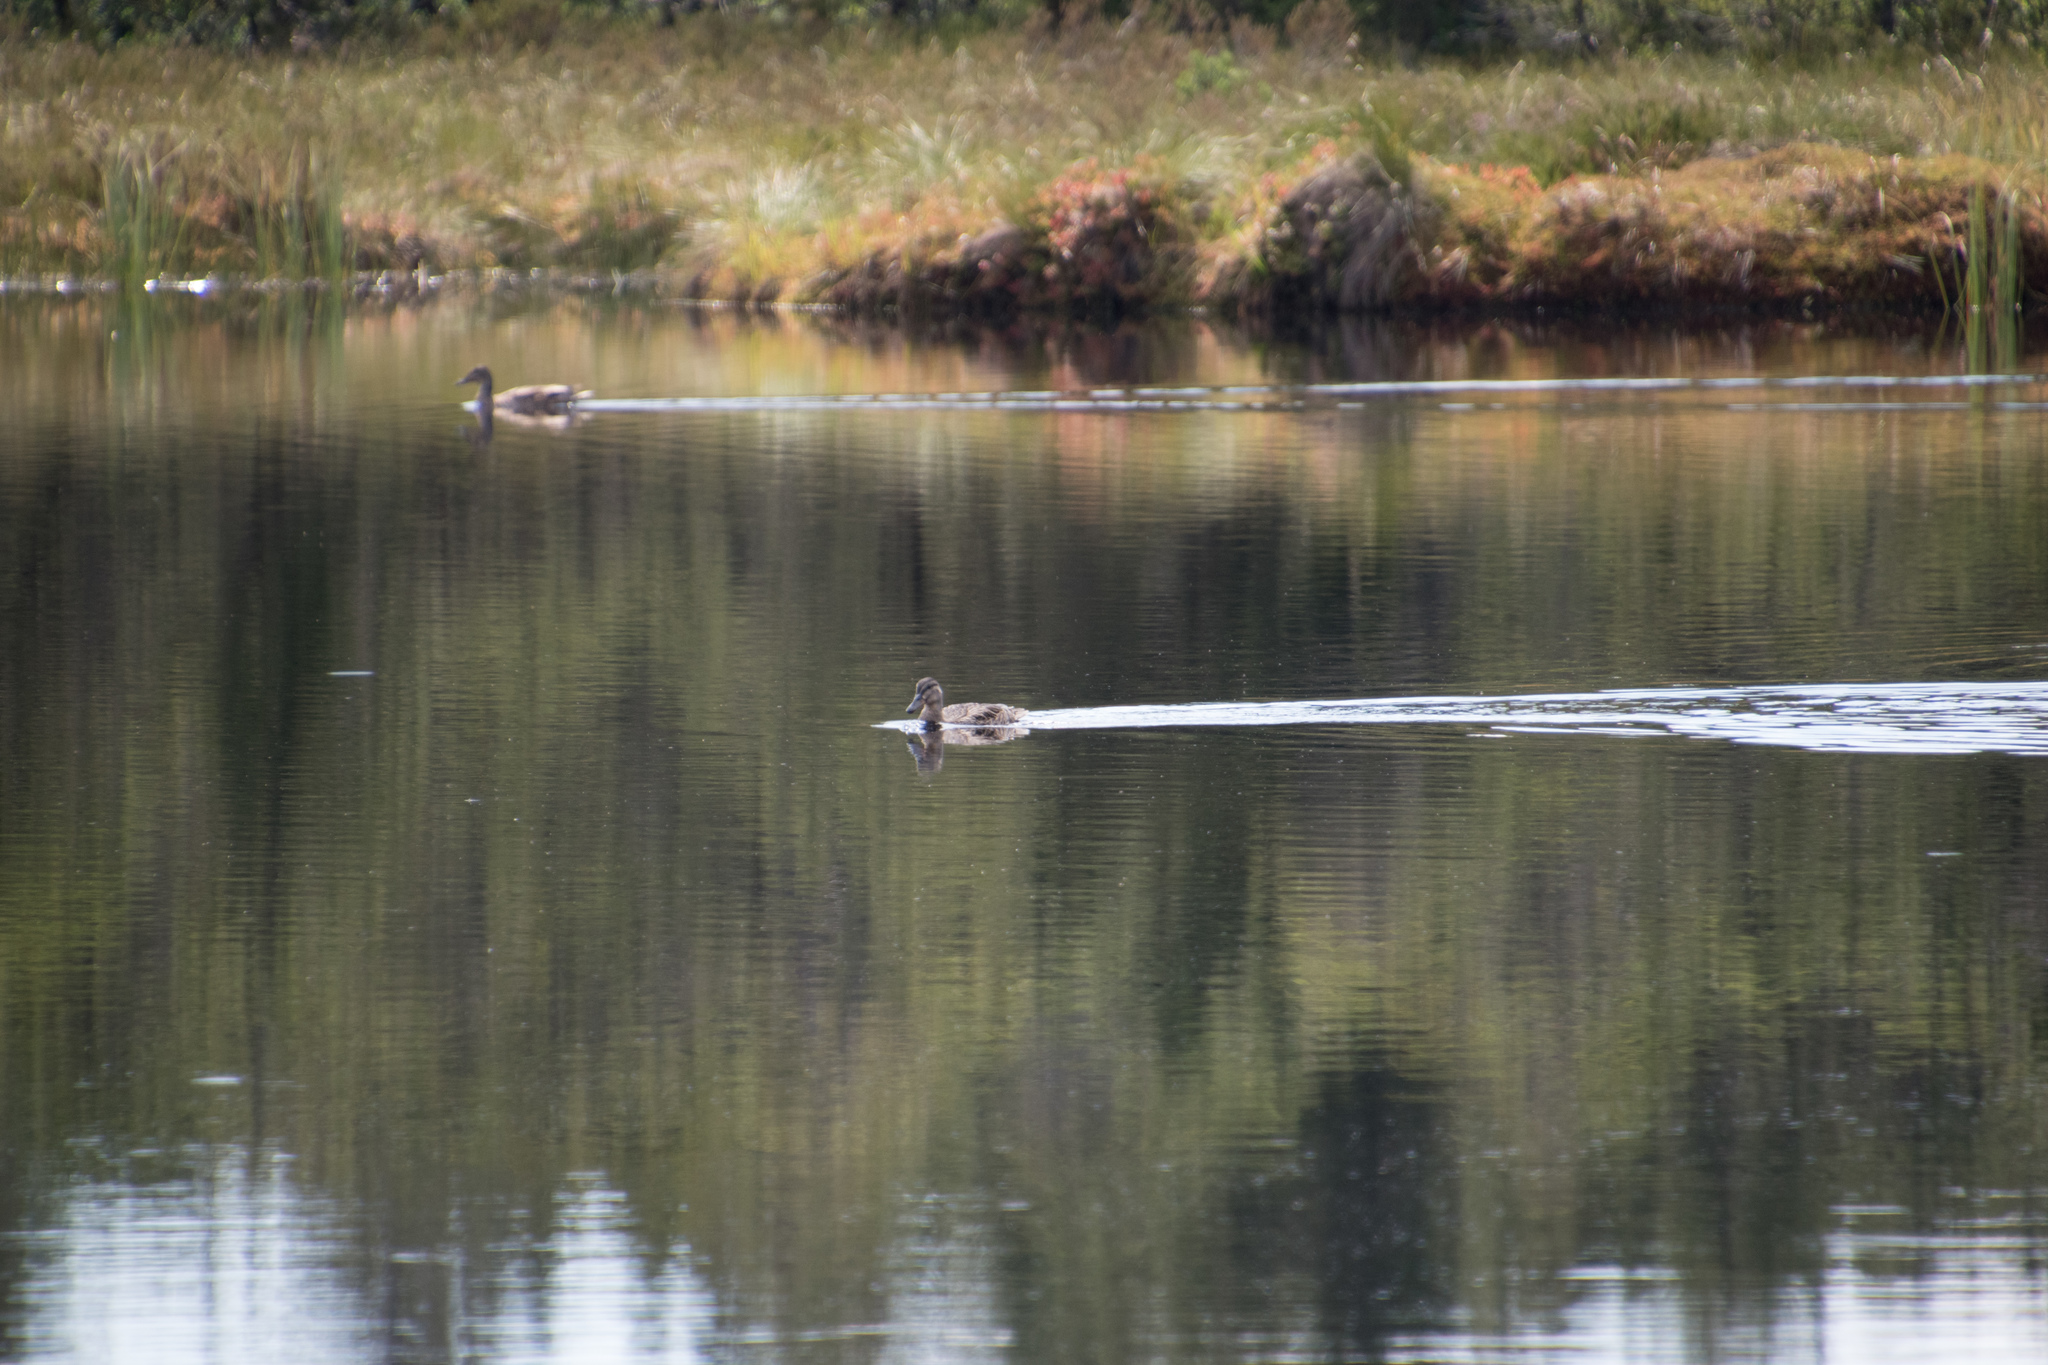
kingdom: Animalia
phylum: Chordata
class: Aves
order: Anseriformes
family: Anatidae
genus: Anas
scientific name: Anas platyrhynchos
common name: Mallard
